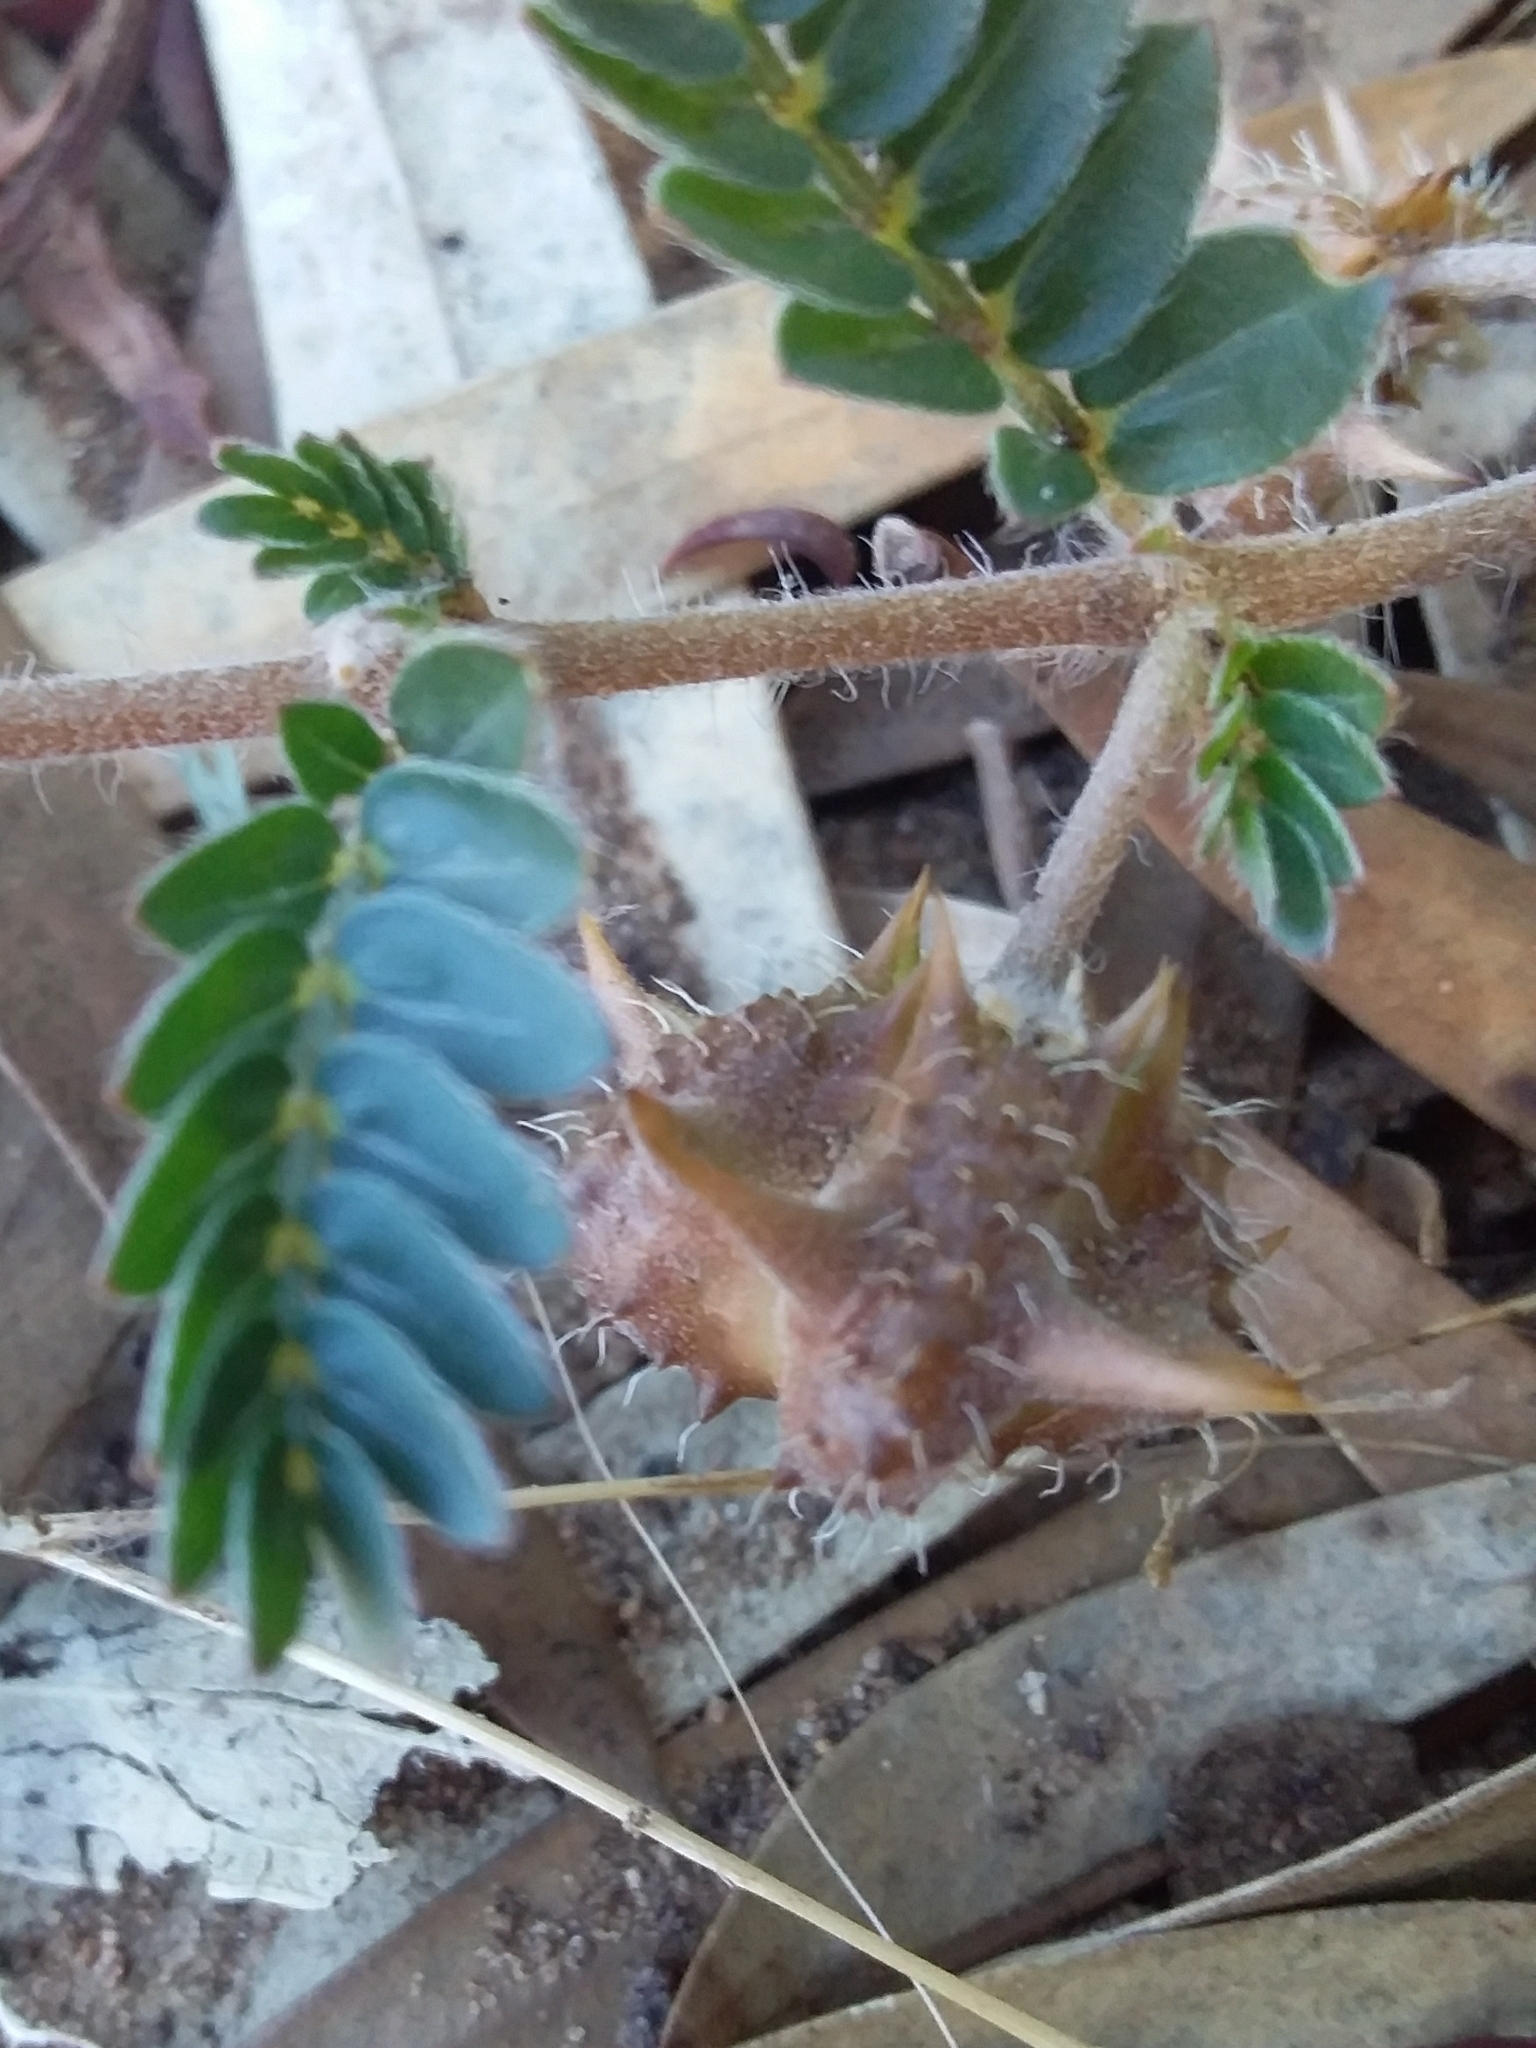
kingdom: Plantae
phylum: Tracheophyta
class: Magnoliopsida
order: Zygophyllales
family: Zygophyllaceae
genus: Tribulus
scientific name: Tribulus terrestris
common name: Puncturevine
